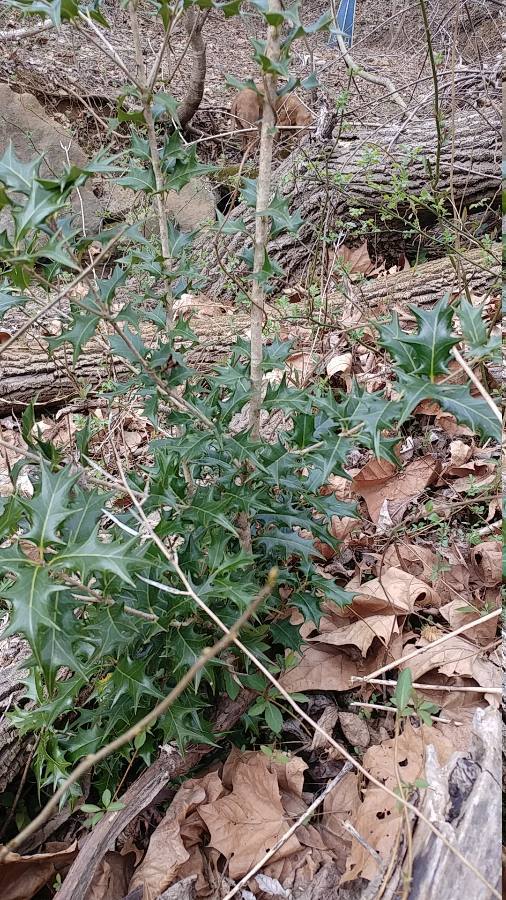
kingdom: Plantae
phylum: Tracheophyta
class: Magnoliopsida
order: Lamiales
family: Oleaceae
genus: Osmanthus
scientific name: Osmanthus heterophyllus
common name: Holly osmanthus
